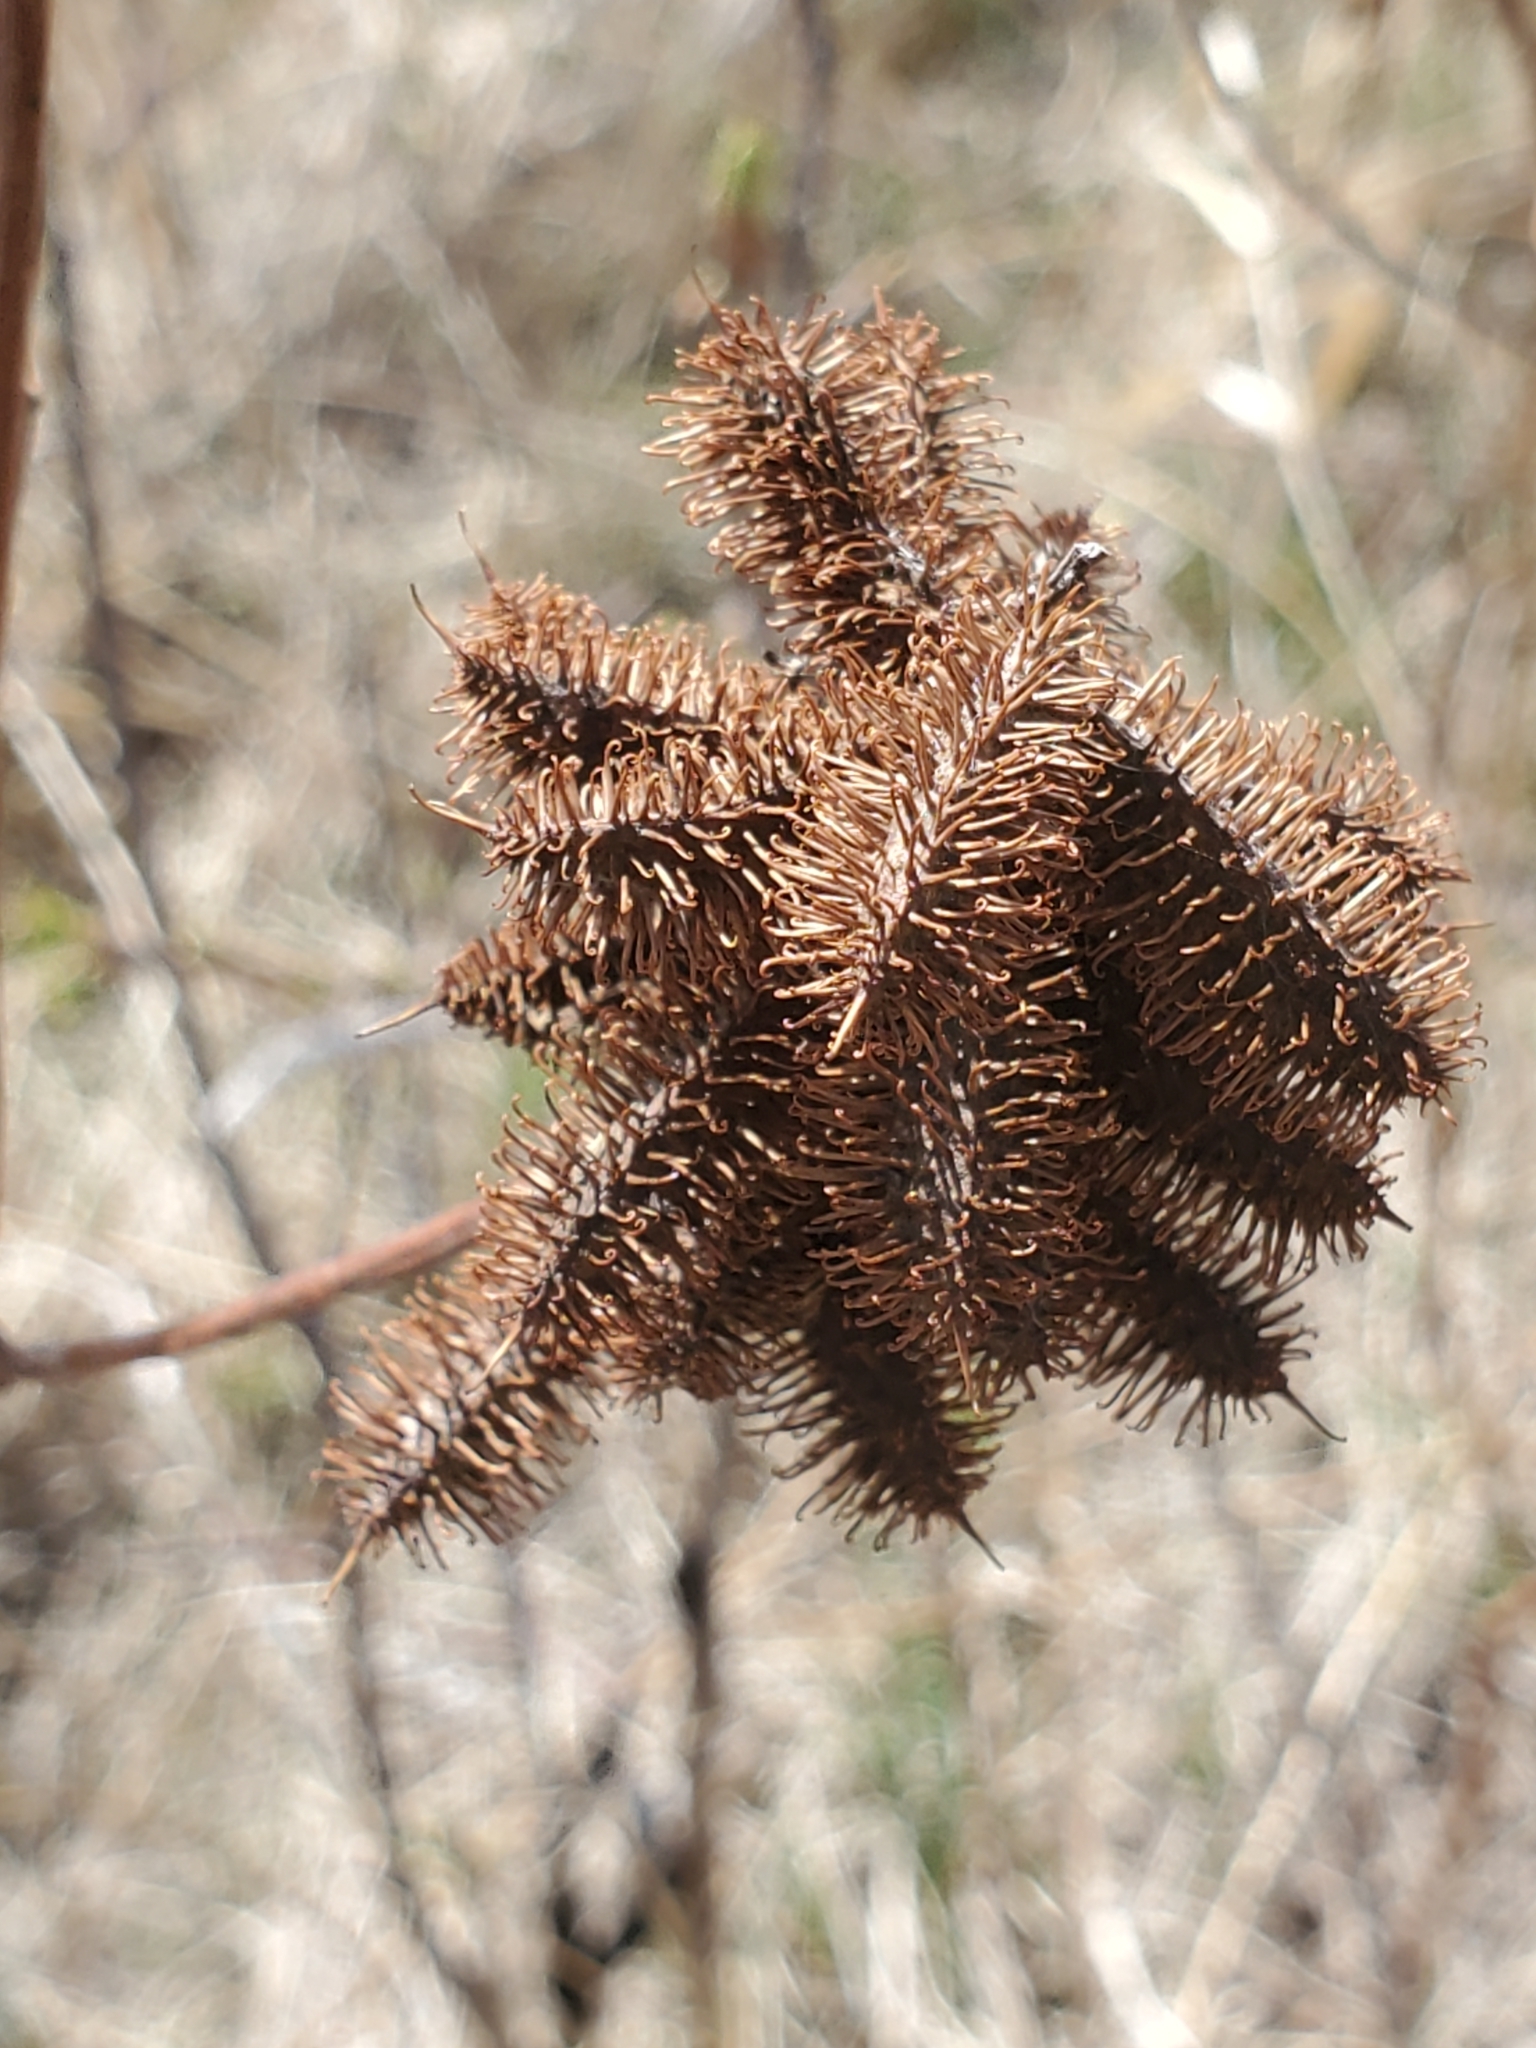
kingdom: Plantae
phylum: Tracheophyta
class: Magnoliopsida
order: Fabales
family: Fabaceae
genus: Glycyrrhiza
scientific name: Glycyrrhiza lepidota
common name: American liquorice
